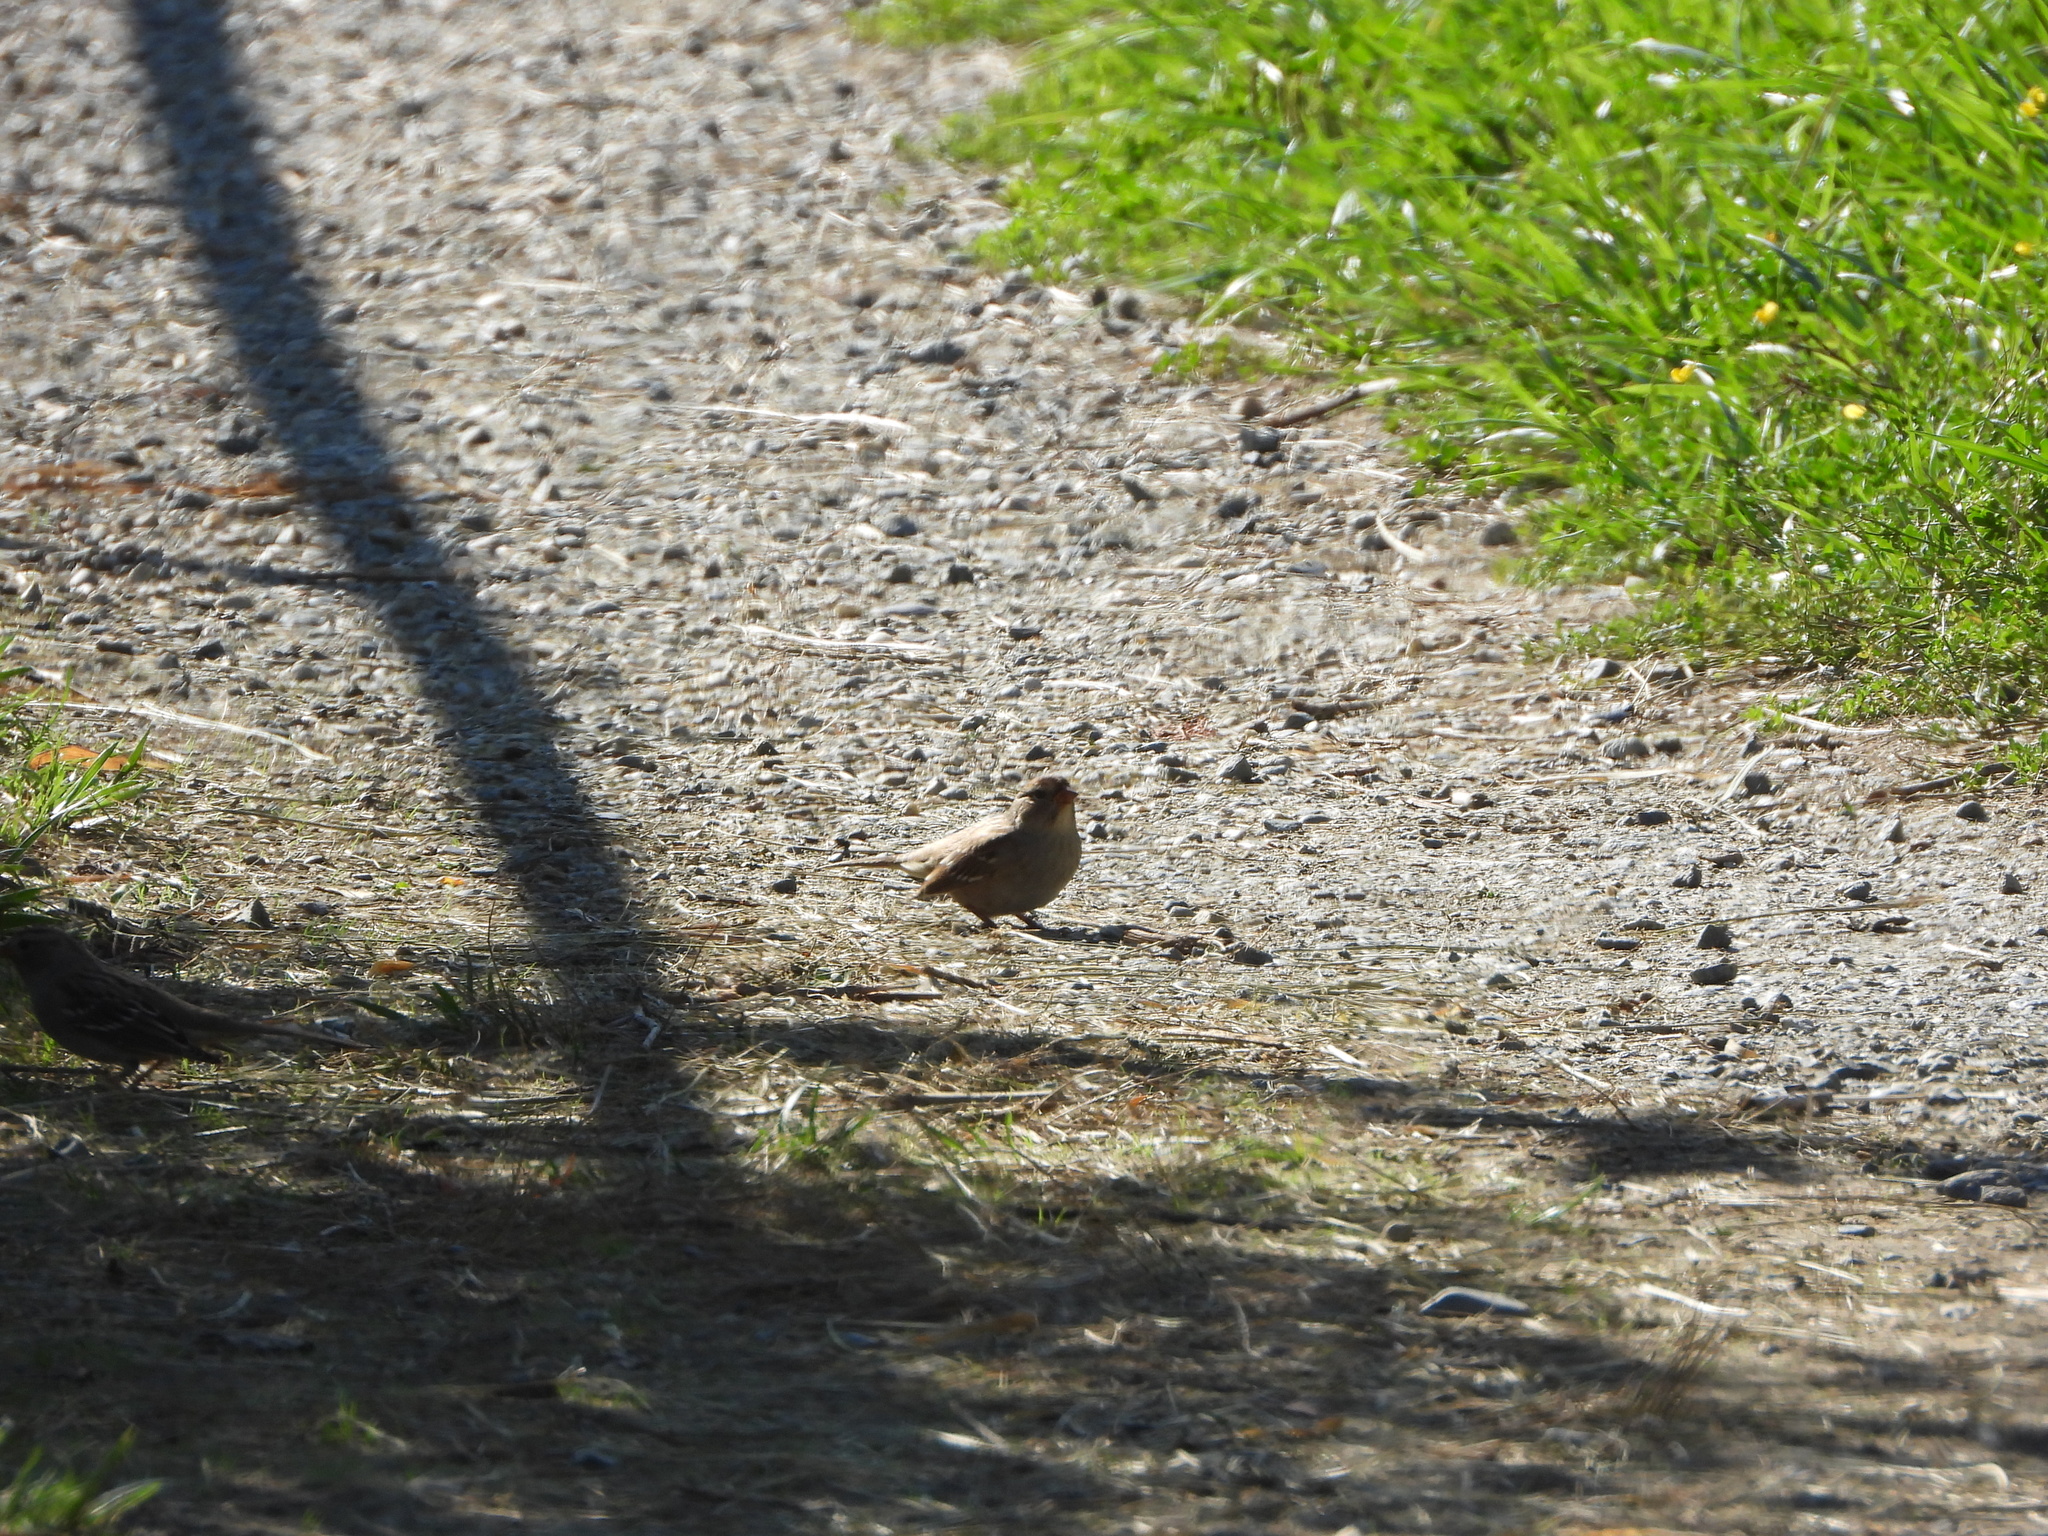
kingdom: Animalia
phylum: Chordata
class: Aves
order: Passeriformes
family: Passerellidae
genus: Zonotrichia
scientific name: Zonotrichia leucophrys
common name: White-crowned sparrow
